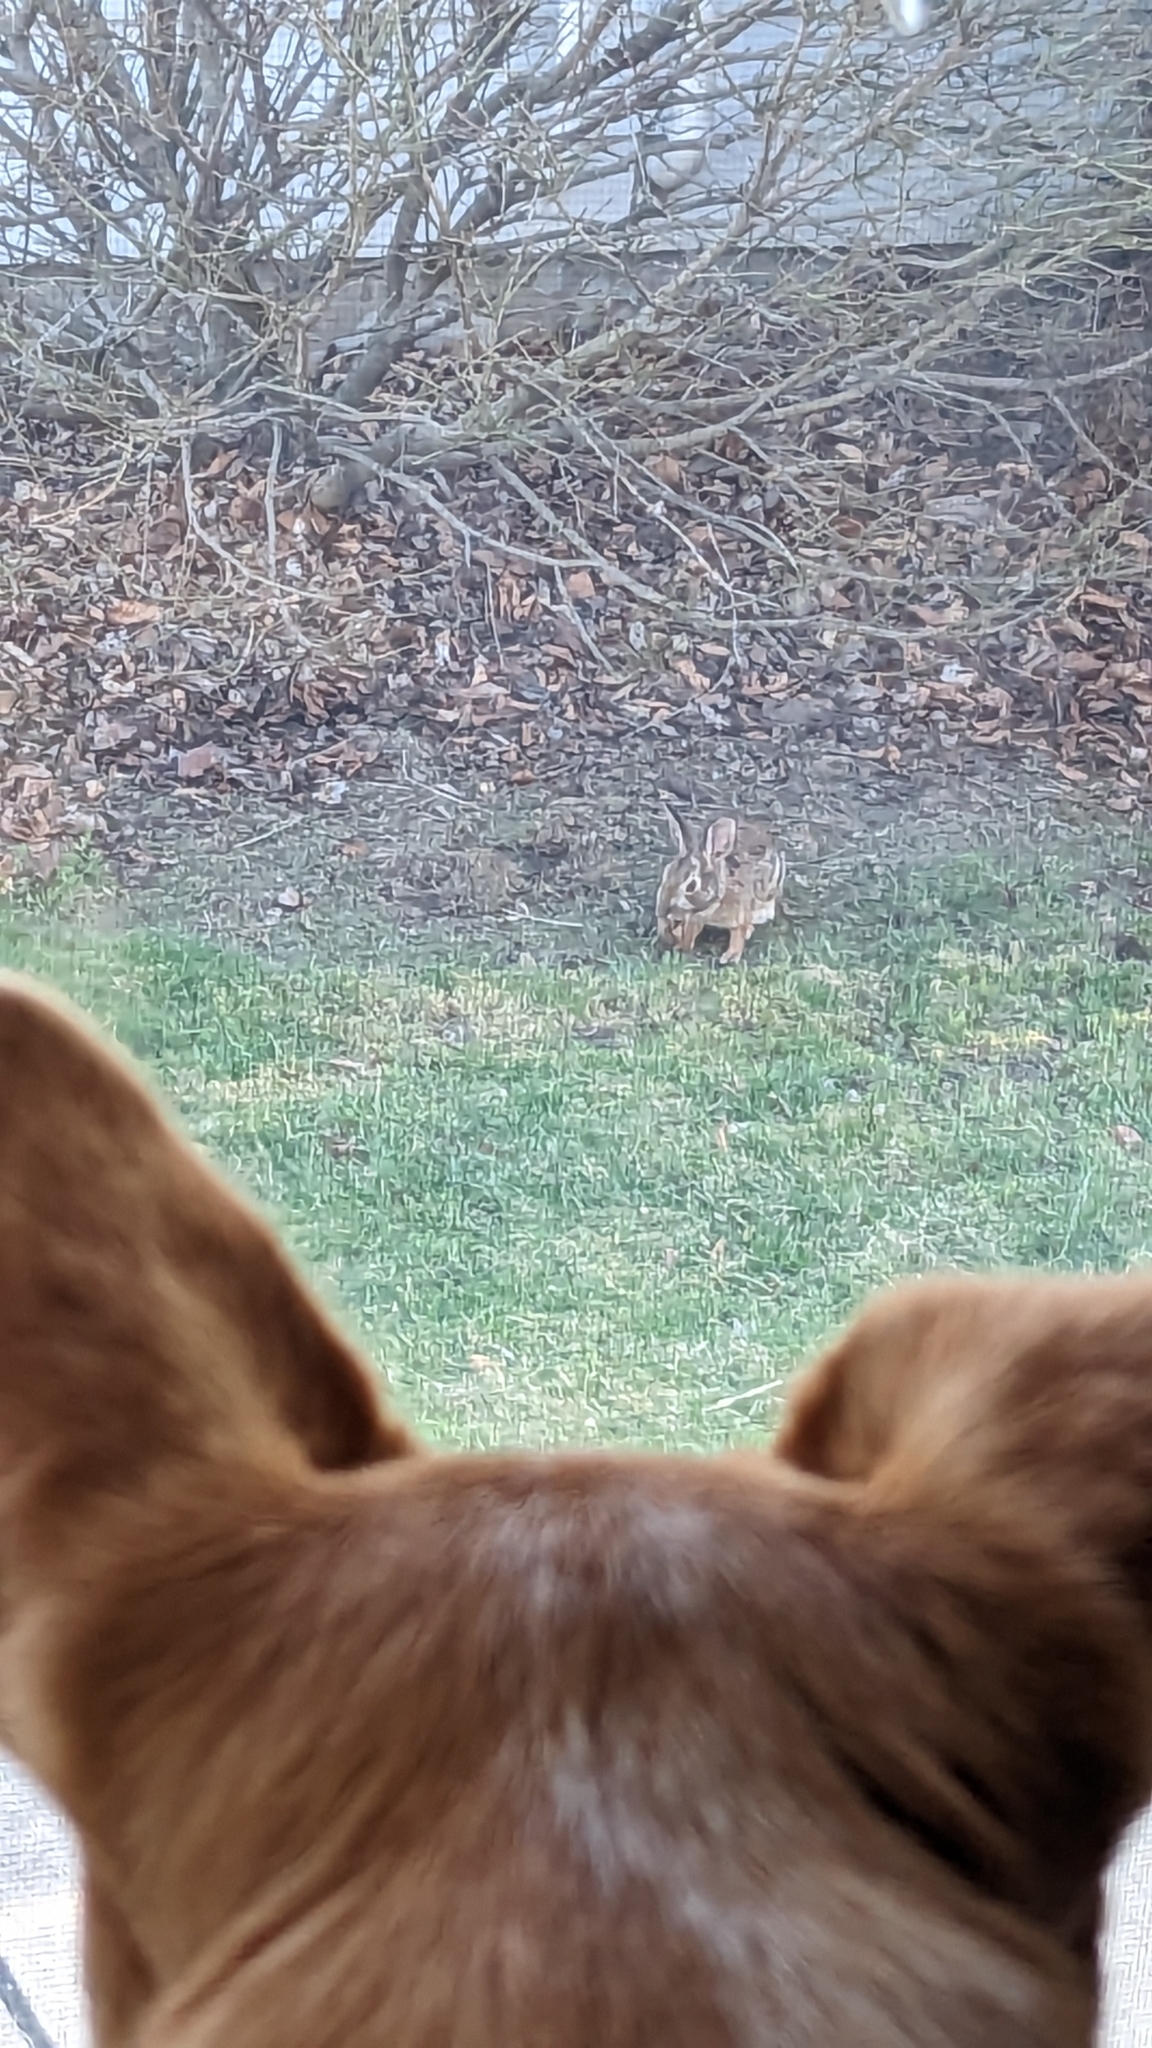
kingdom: Animalia
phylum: Chordata
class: Mammalia
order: Lagomorpha
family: Leporidae
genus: Sylvilagus
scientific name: Sylvilagus floridanus
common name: Eastern cottontail
